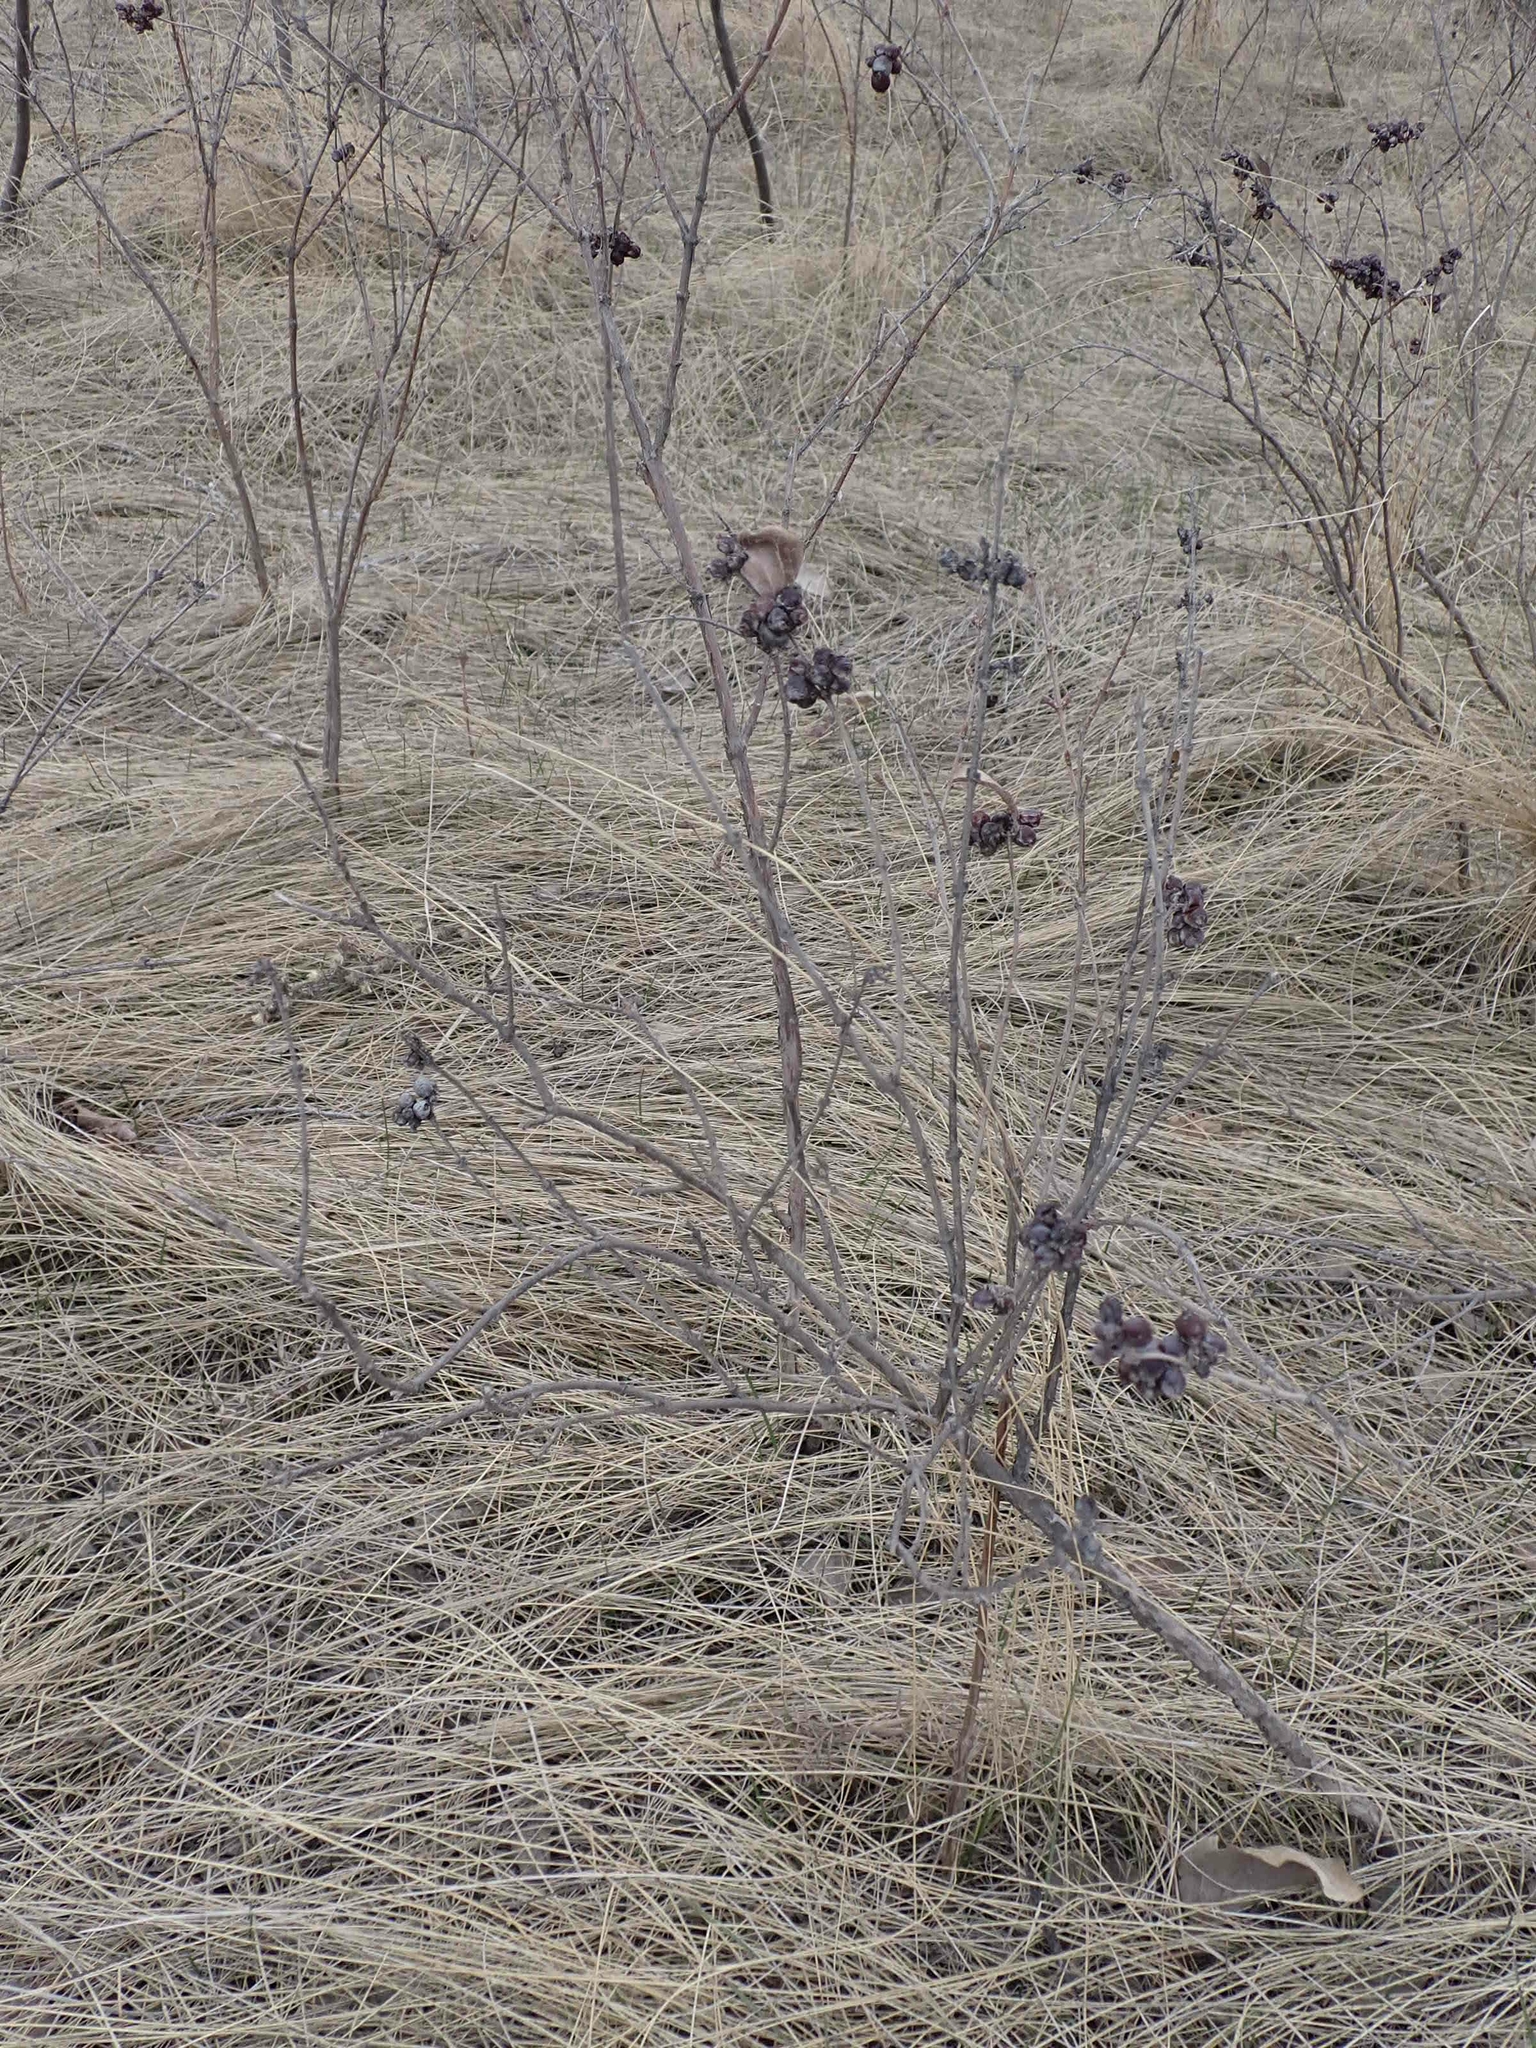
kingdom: Plantae
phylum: Tracheophyta
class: Magnoliopsida
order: Dipsacales
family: Caprifoliaceae
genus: Symphoricarpos
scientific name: Symphoricarpos occidentalis
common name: Wolfberry
